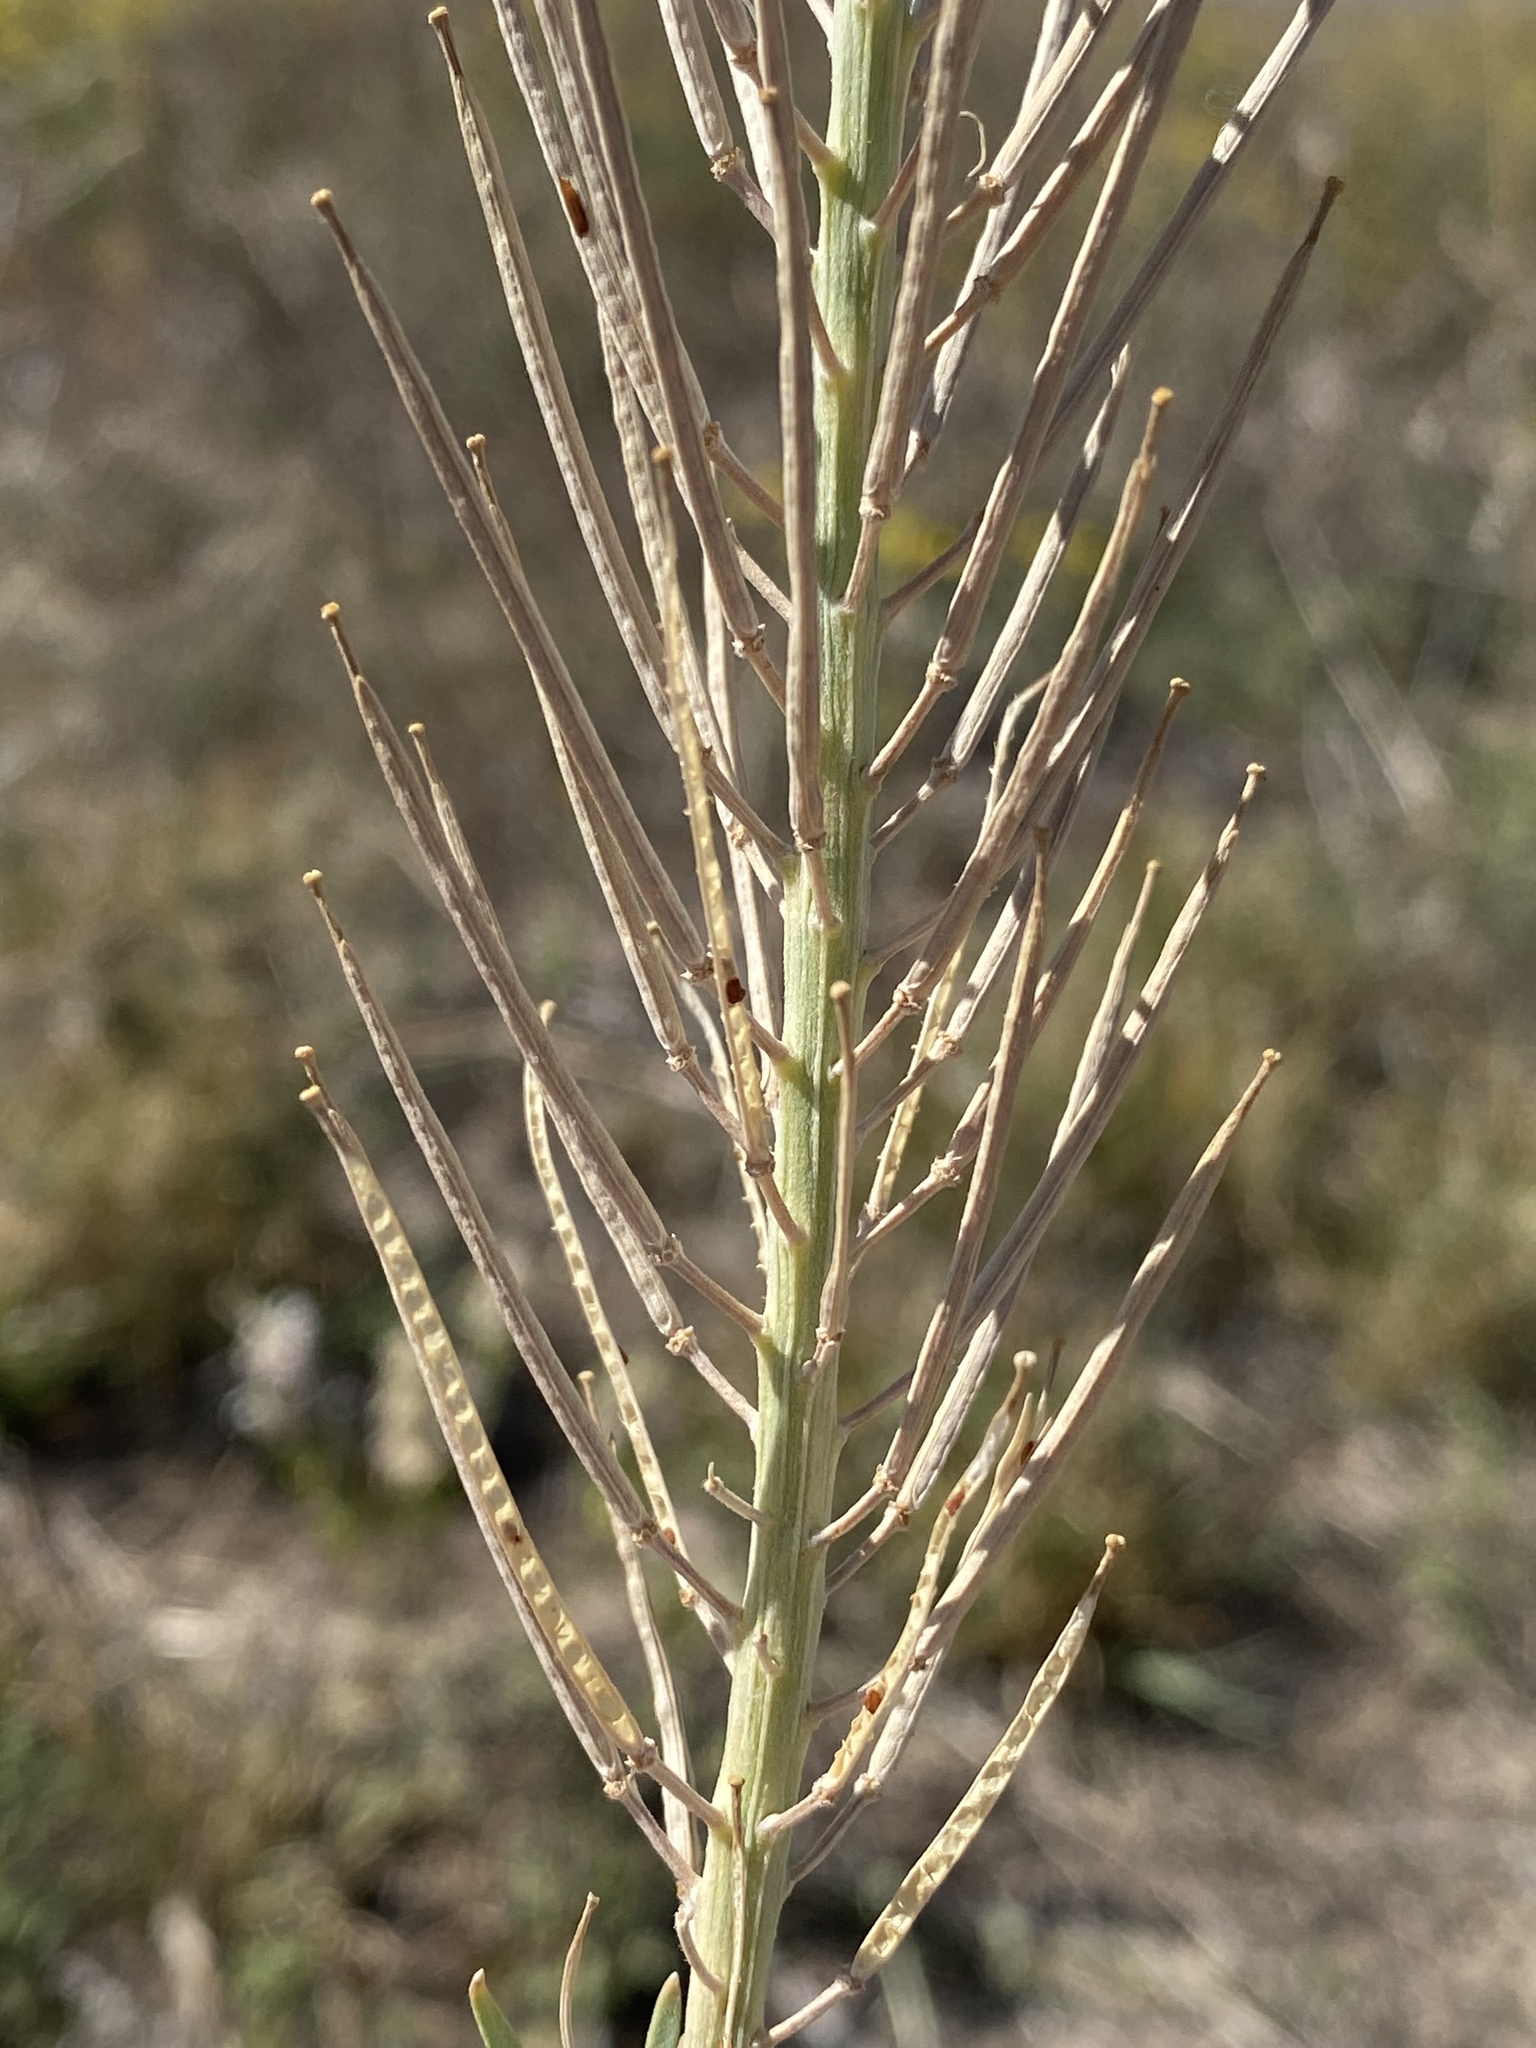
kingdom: Plantae
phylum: Tracheophyta
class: Magnoliopsida
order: Brassicales
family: Brassicaceae
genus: Erysimum
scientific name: Erysimum capitatum
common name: Western wallflower
